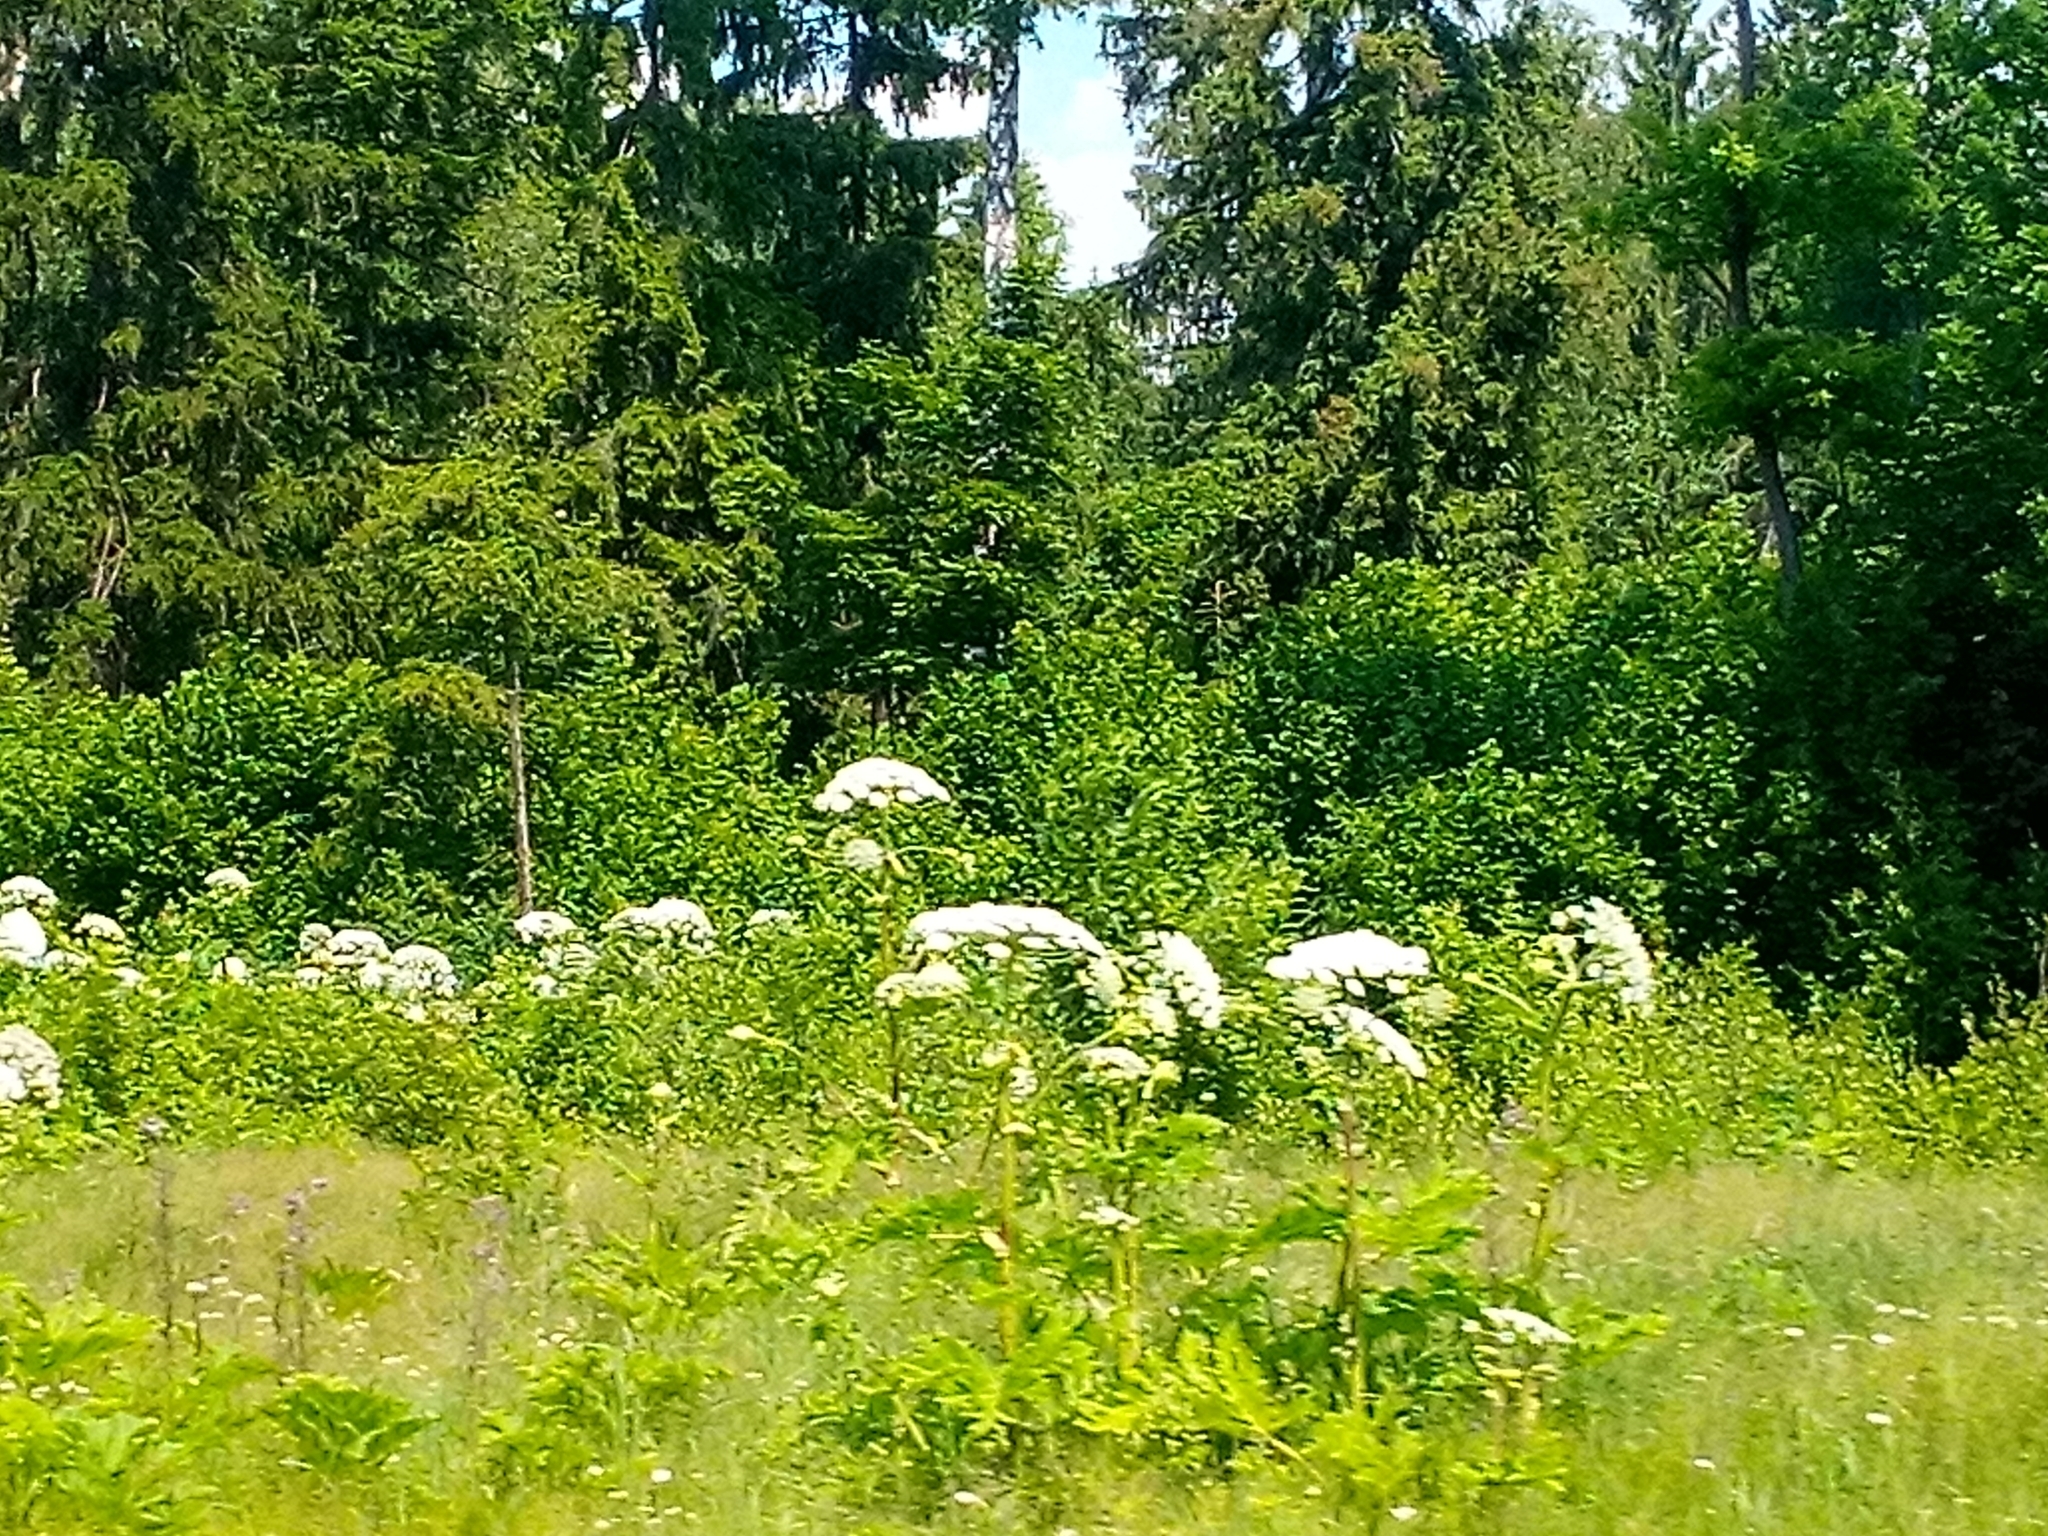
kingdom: Plantae
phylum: Tracheophyta
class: Magnoliopsida
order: Apiales
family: Apiaceae
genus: Heracleum
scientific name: Heracleum sosnowskyi
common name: Sosnowsky's hogweed
